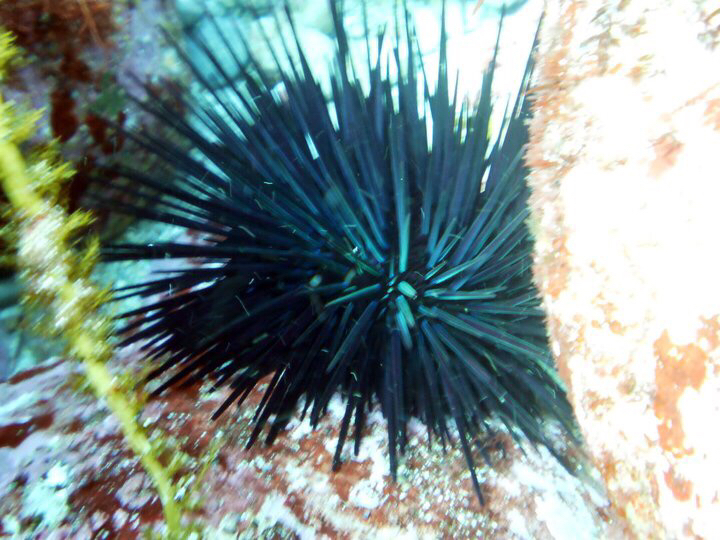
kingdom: Animalia
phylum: Echinodermata
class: Echinoidea
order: Diadematoida
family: Diadematidae
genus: Centrostephanus
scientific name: Centrostephanus rodgersii
